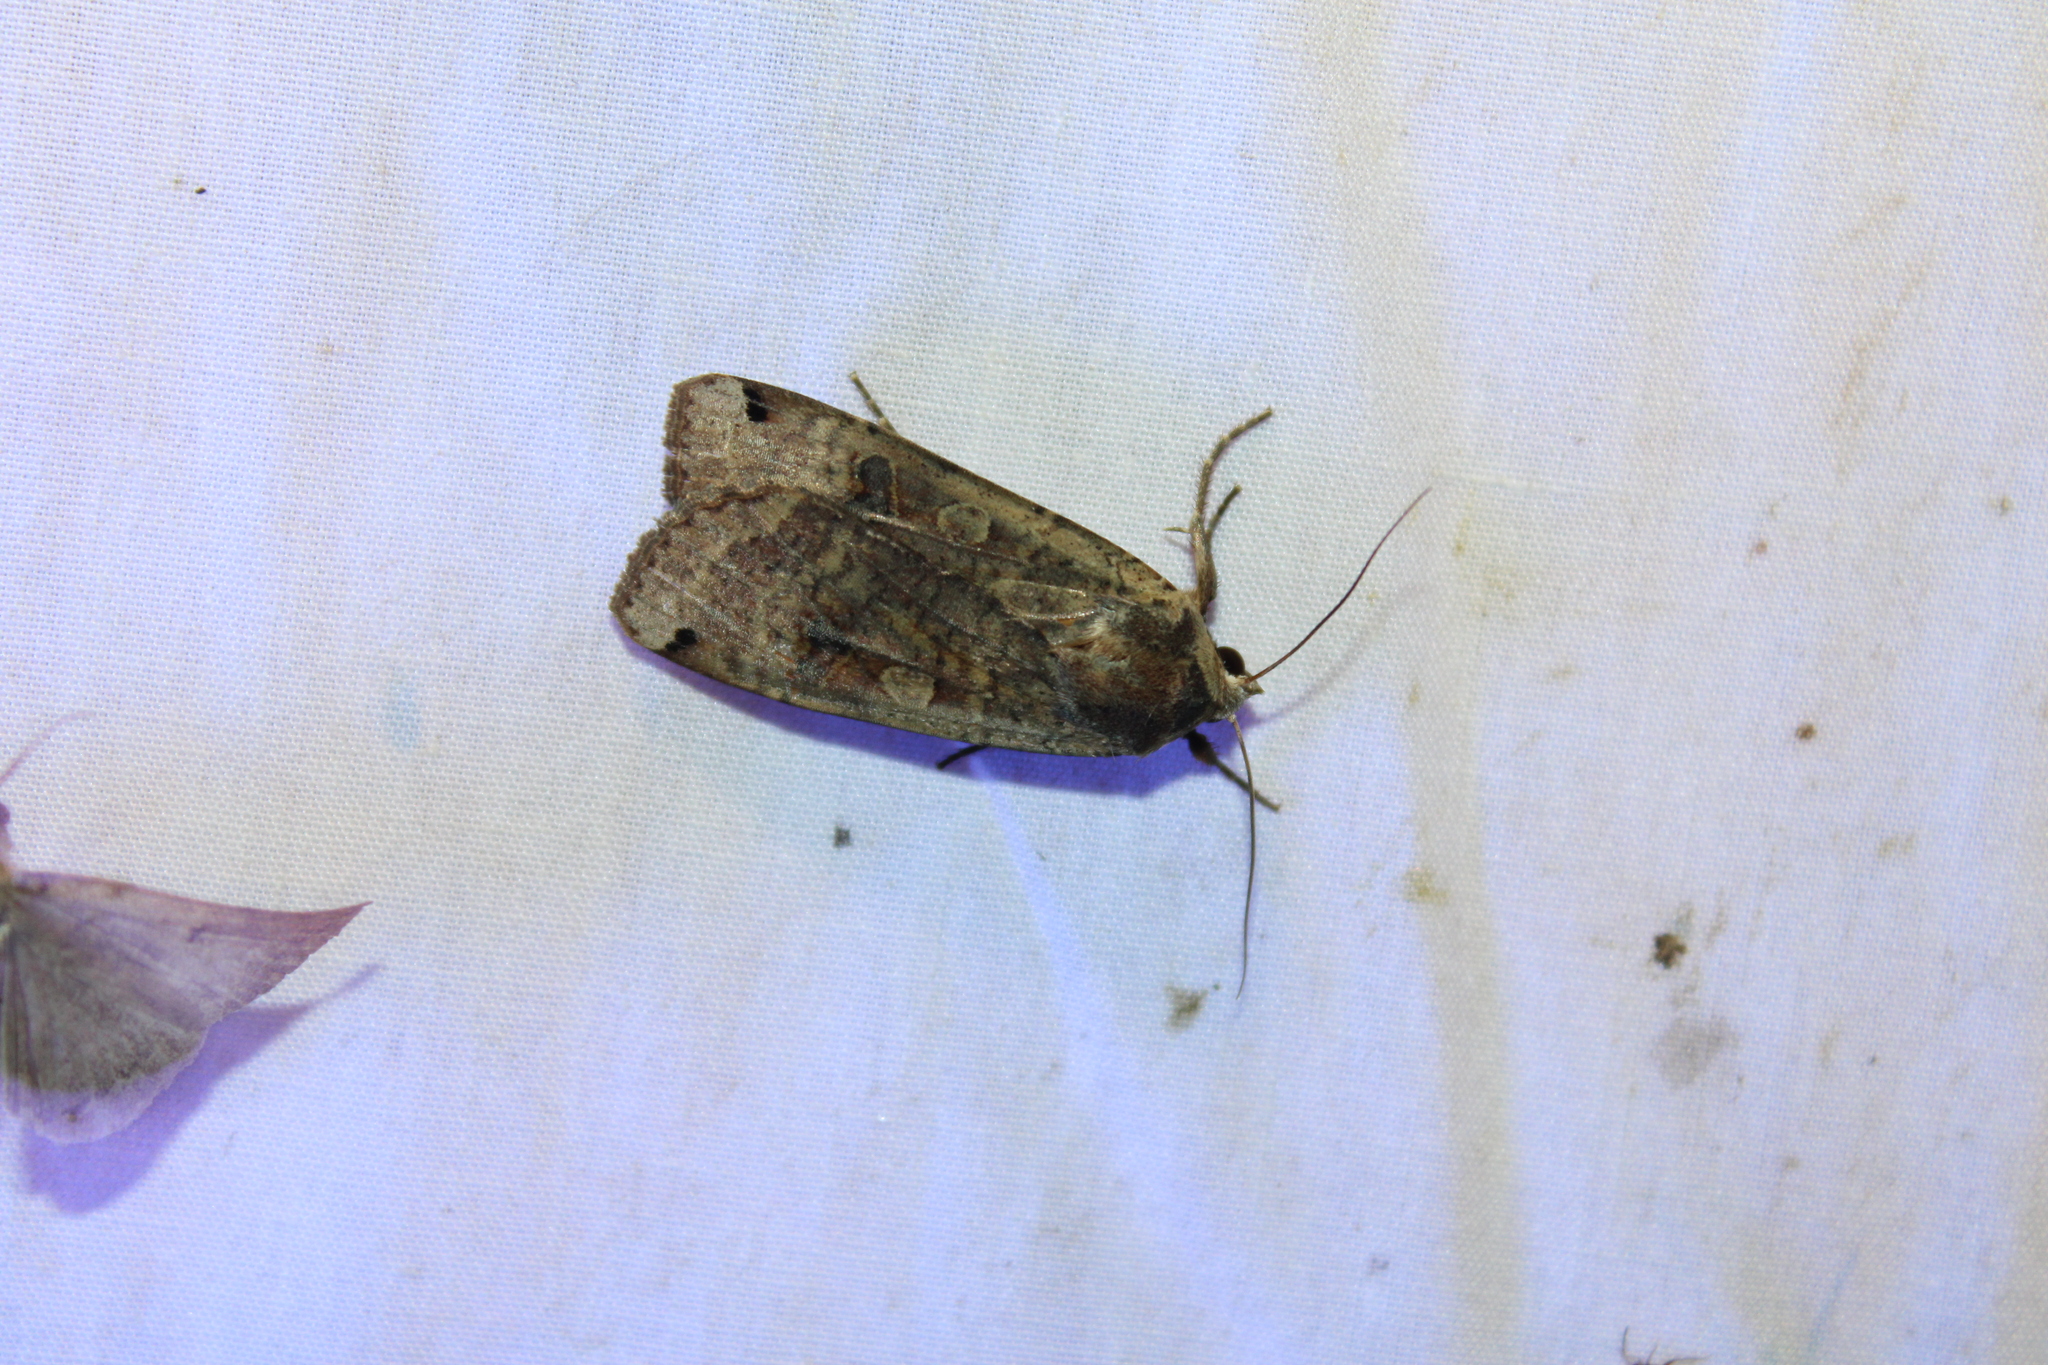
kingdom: Animalia
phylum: Arthropoda
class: Insecta
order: Lepidoptera
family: Noctuidae
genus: Noctua
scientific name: Noctua pronuba
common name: Large yellow underwing
